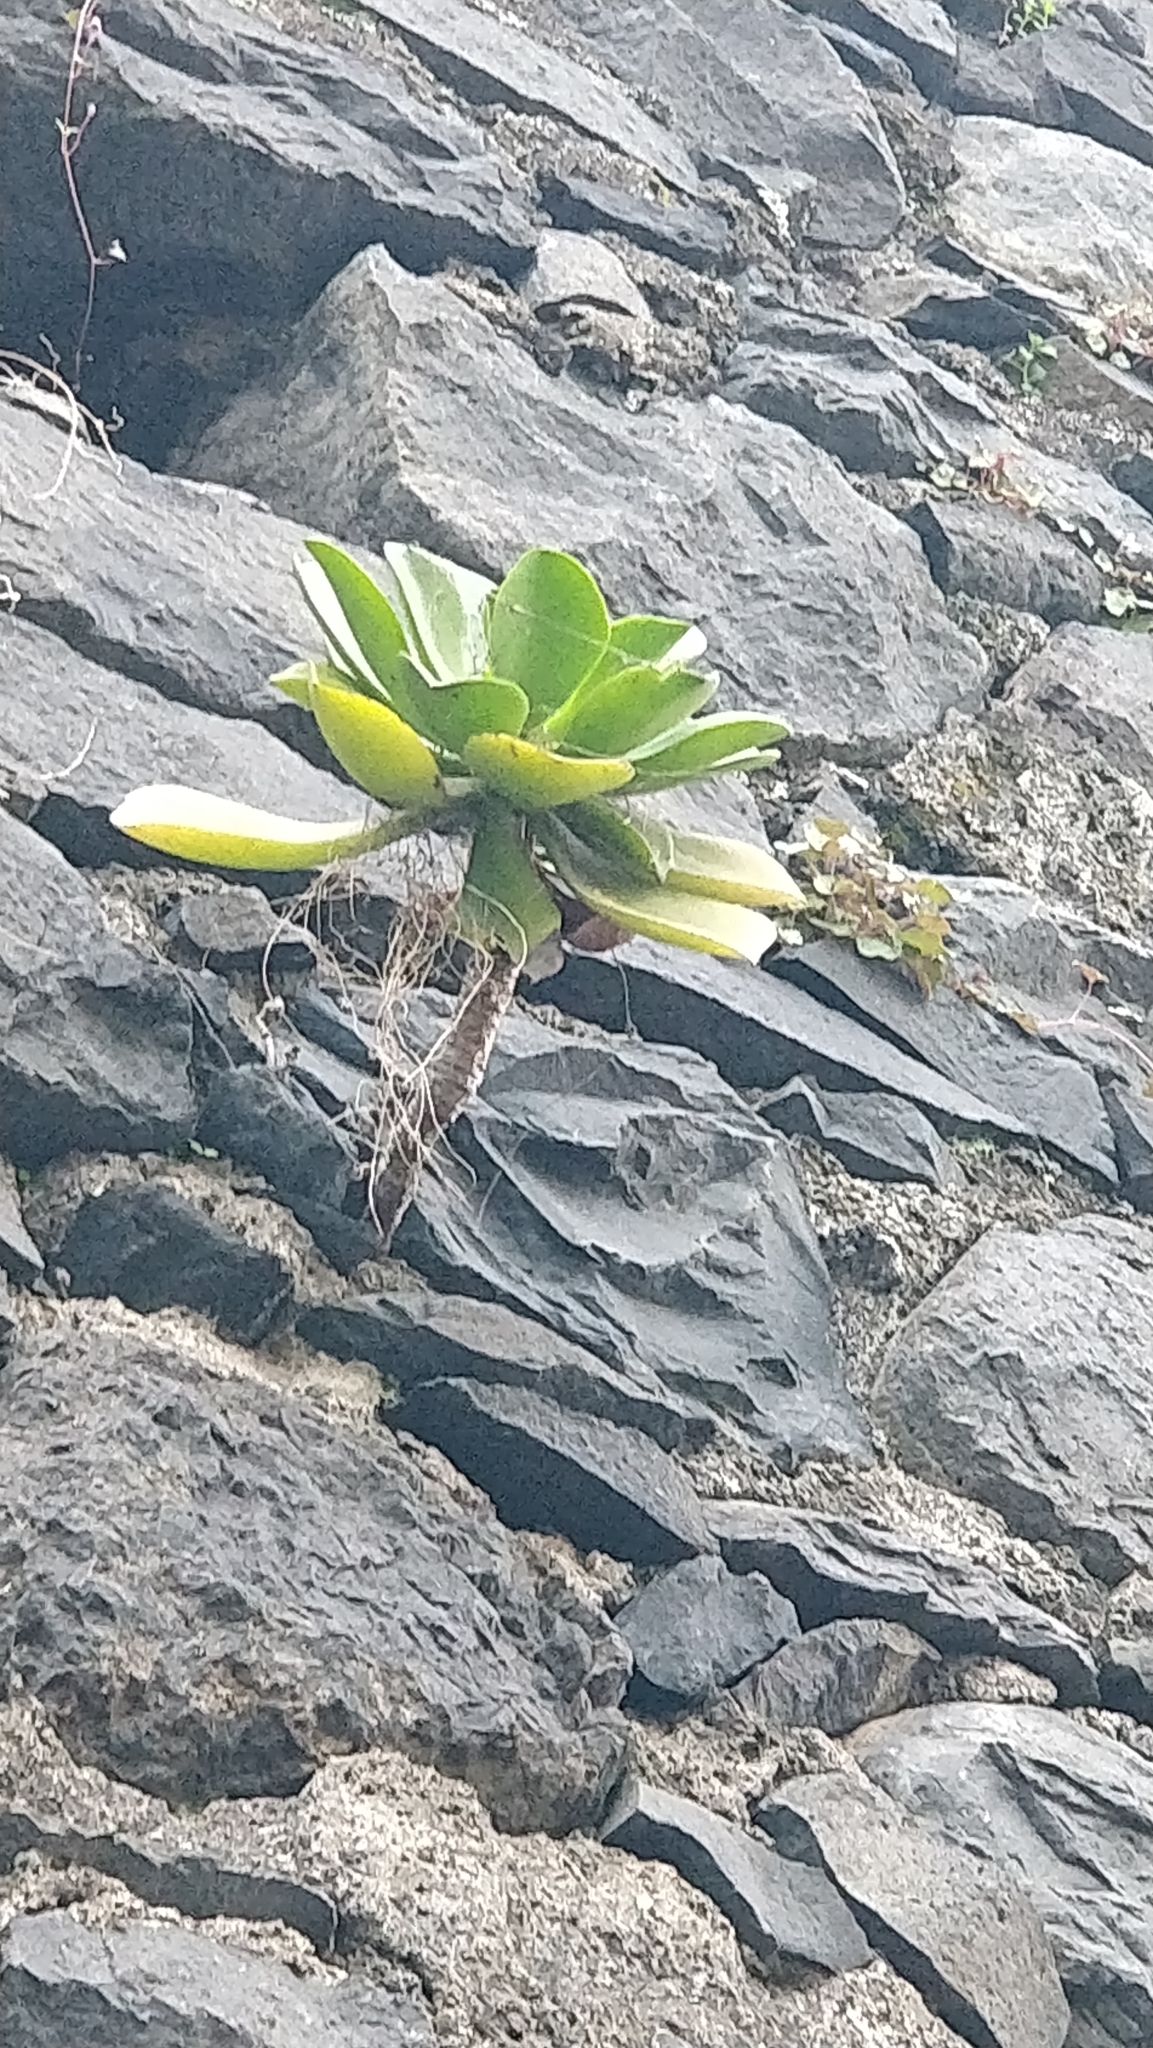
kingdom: Plantae
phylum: Tracheophyta
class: Magnoliopsida
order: Saxifragales
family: Crassulaceae
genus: Aeonium
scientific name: Aeonium glutinosum
